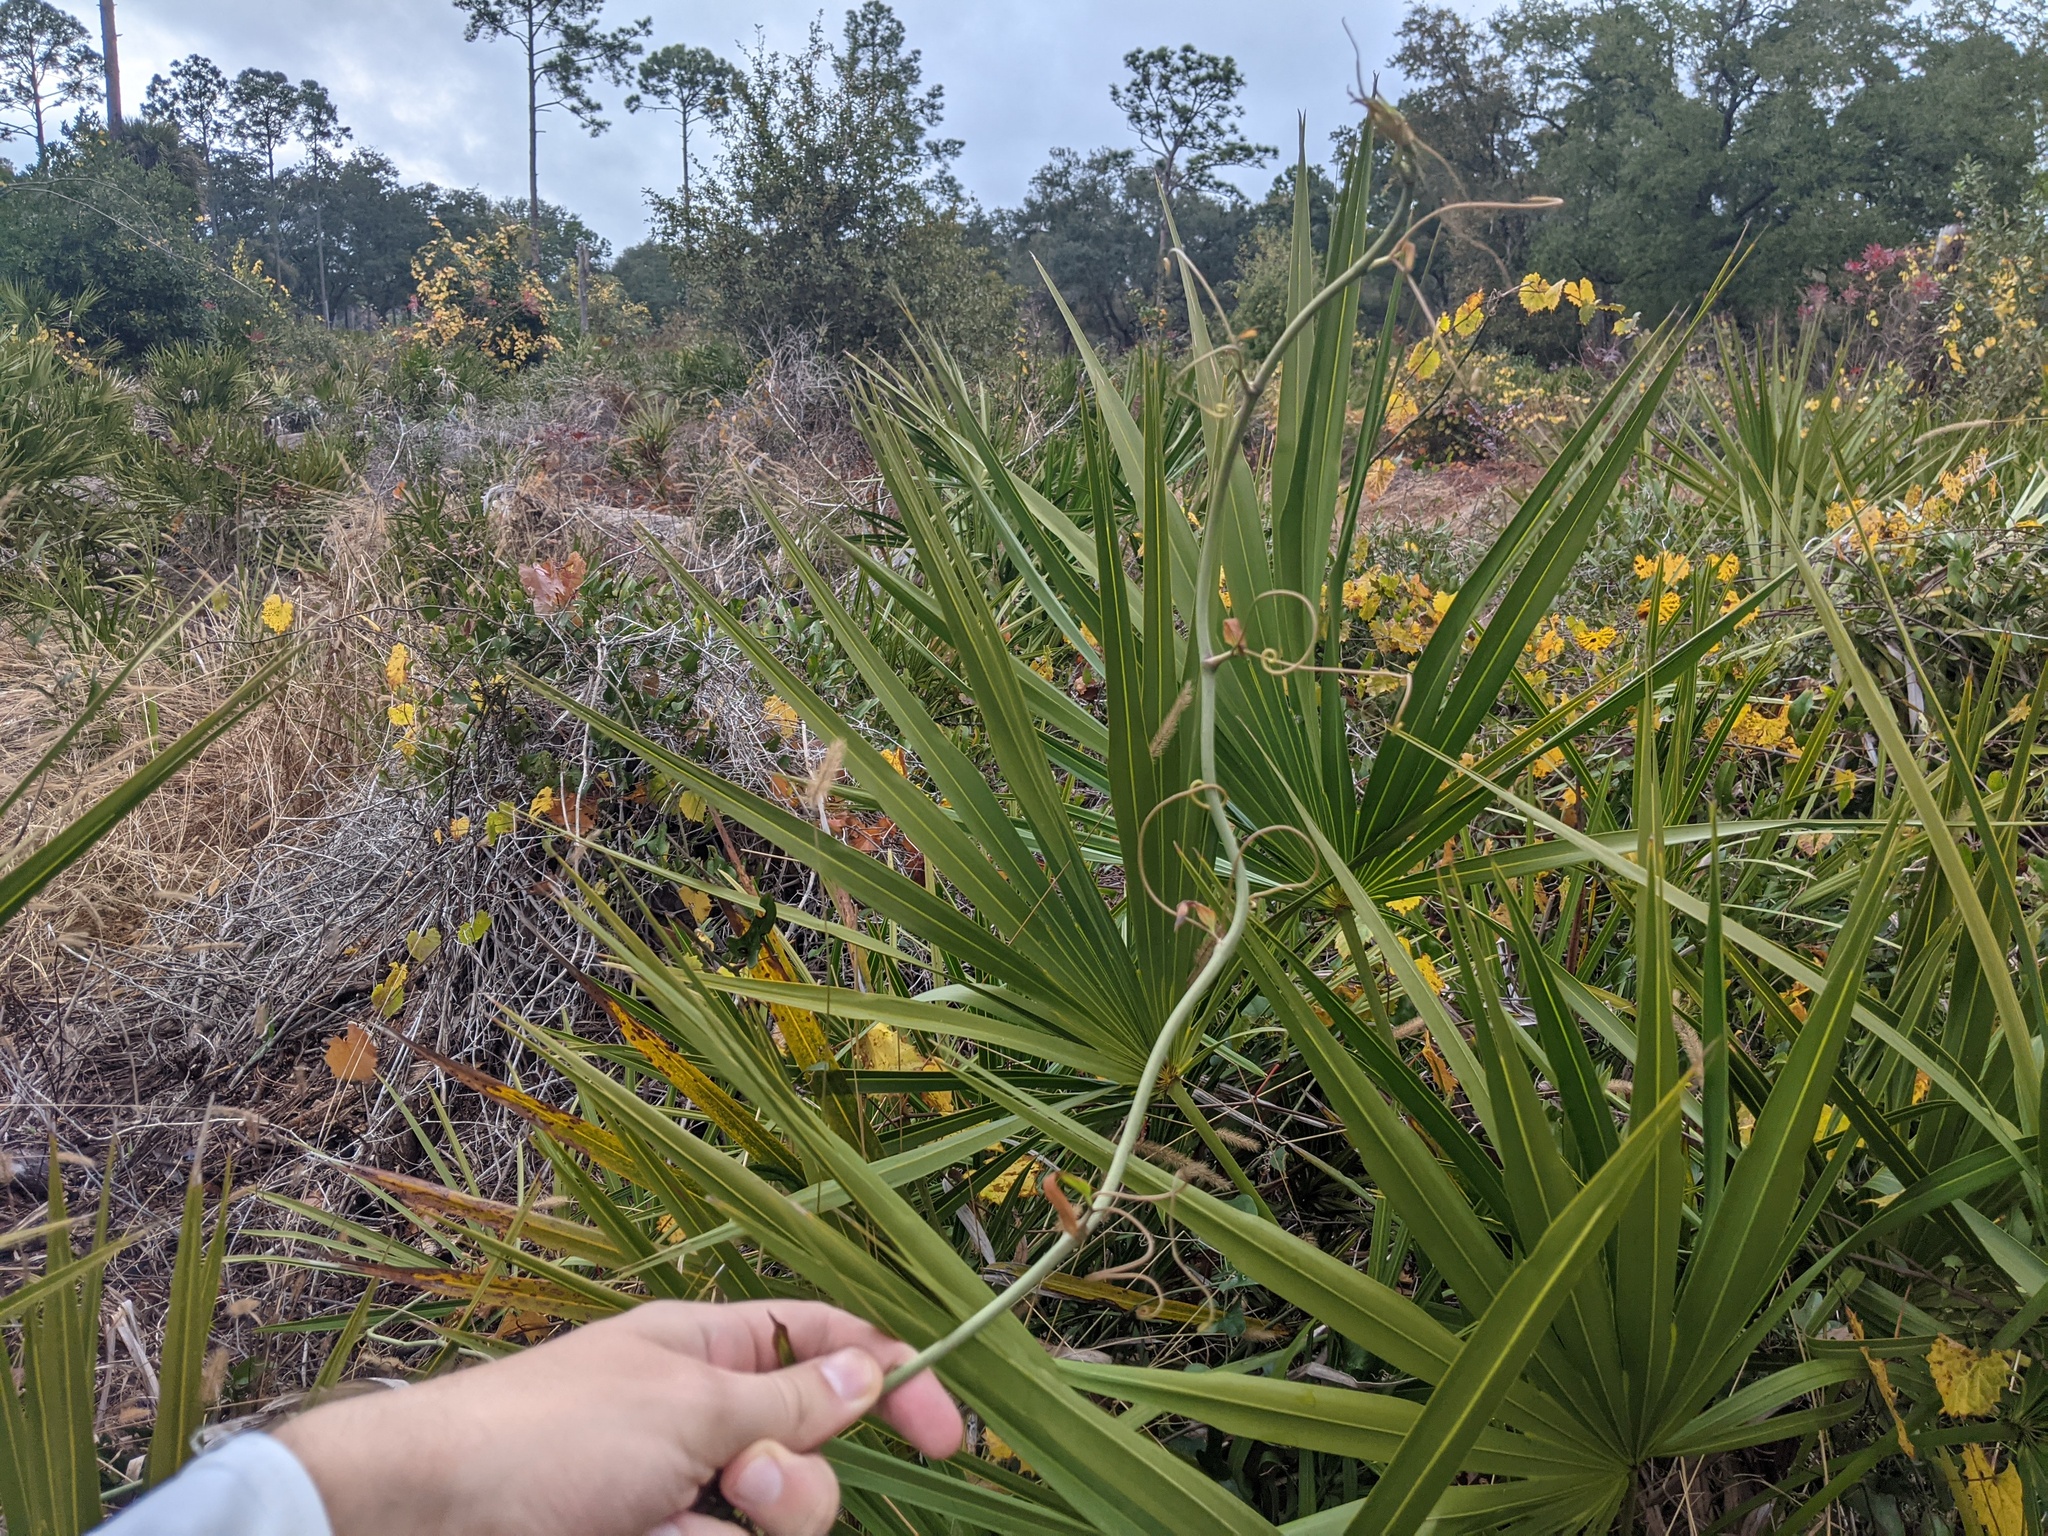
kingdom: Plantae
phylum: Tracheophyta
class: Liliopsida
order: Liliales
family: Smilacaceae
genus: Smilax
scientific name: Smilax auriculata
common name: Wild bamboo
